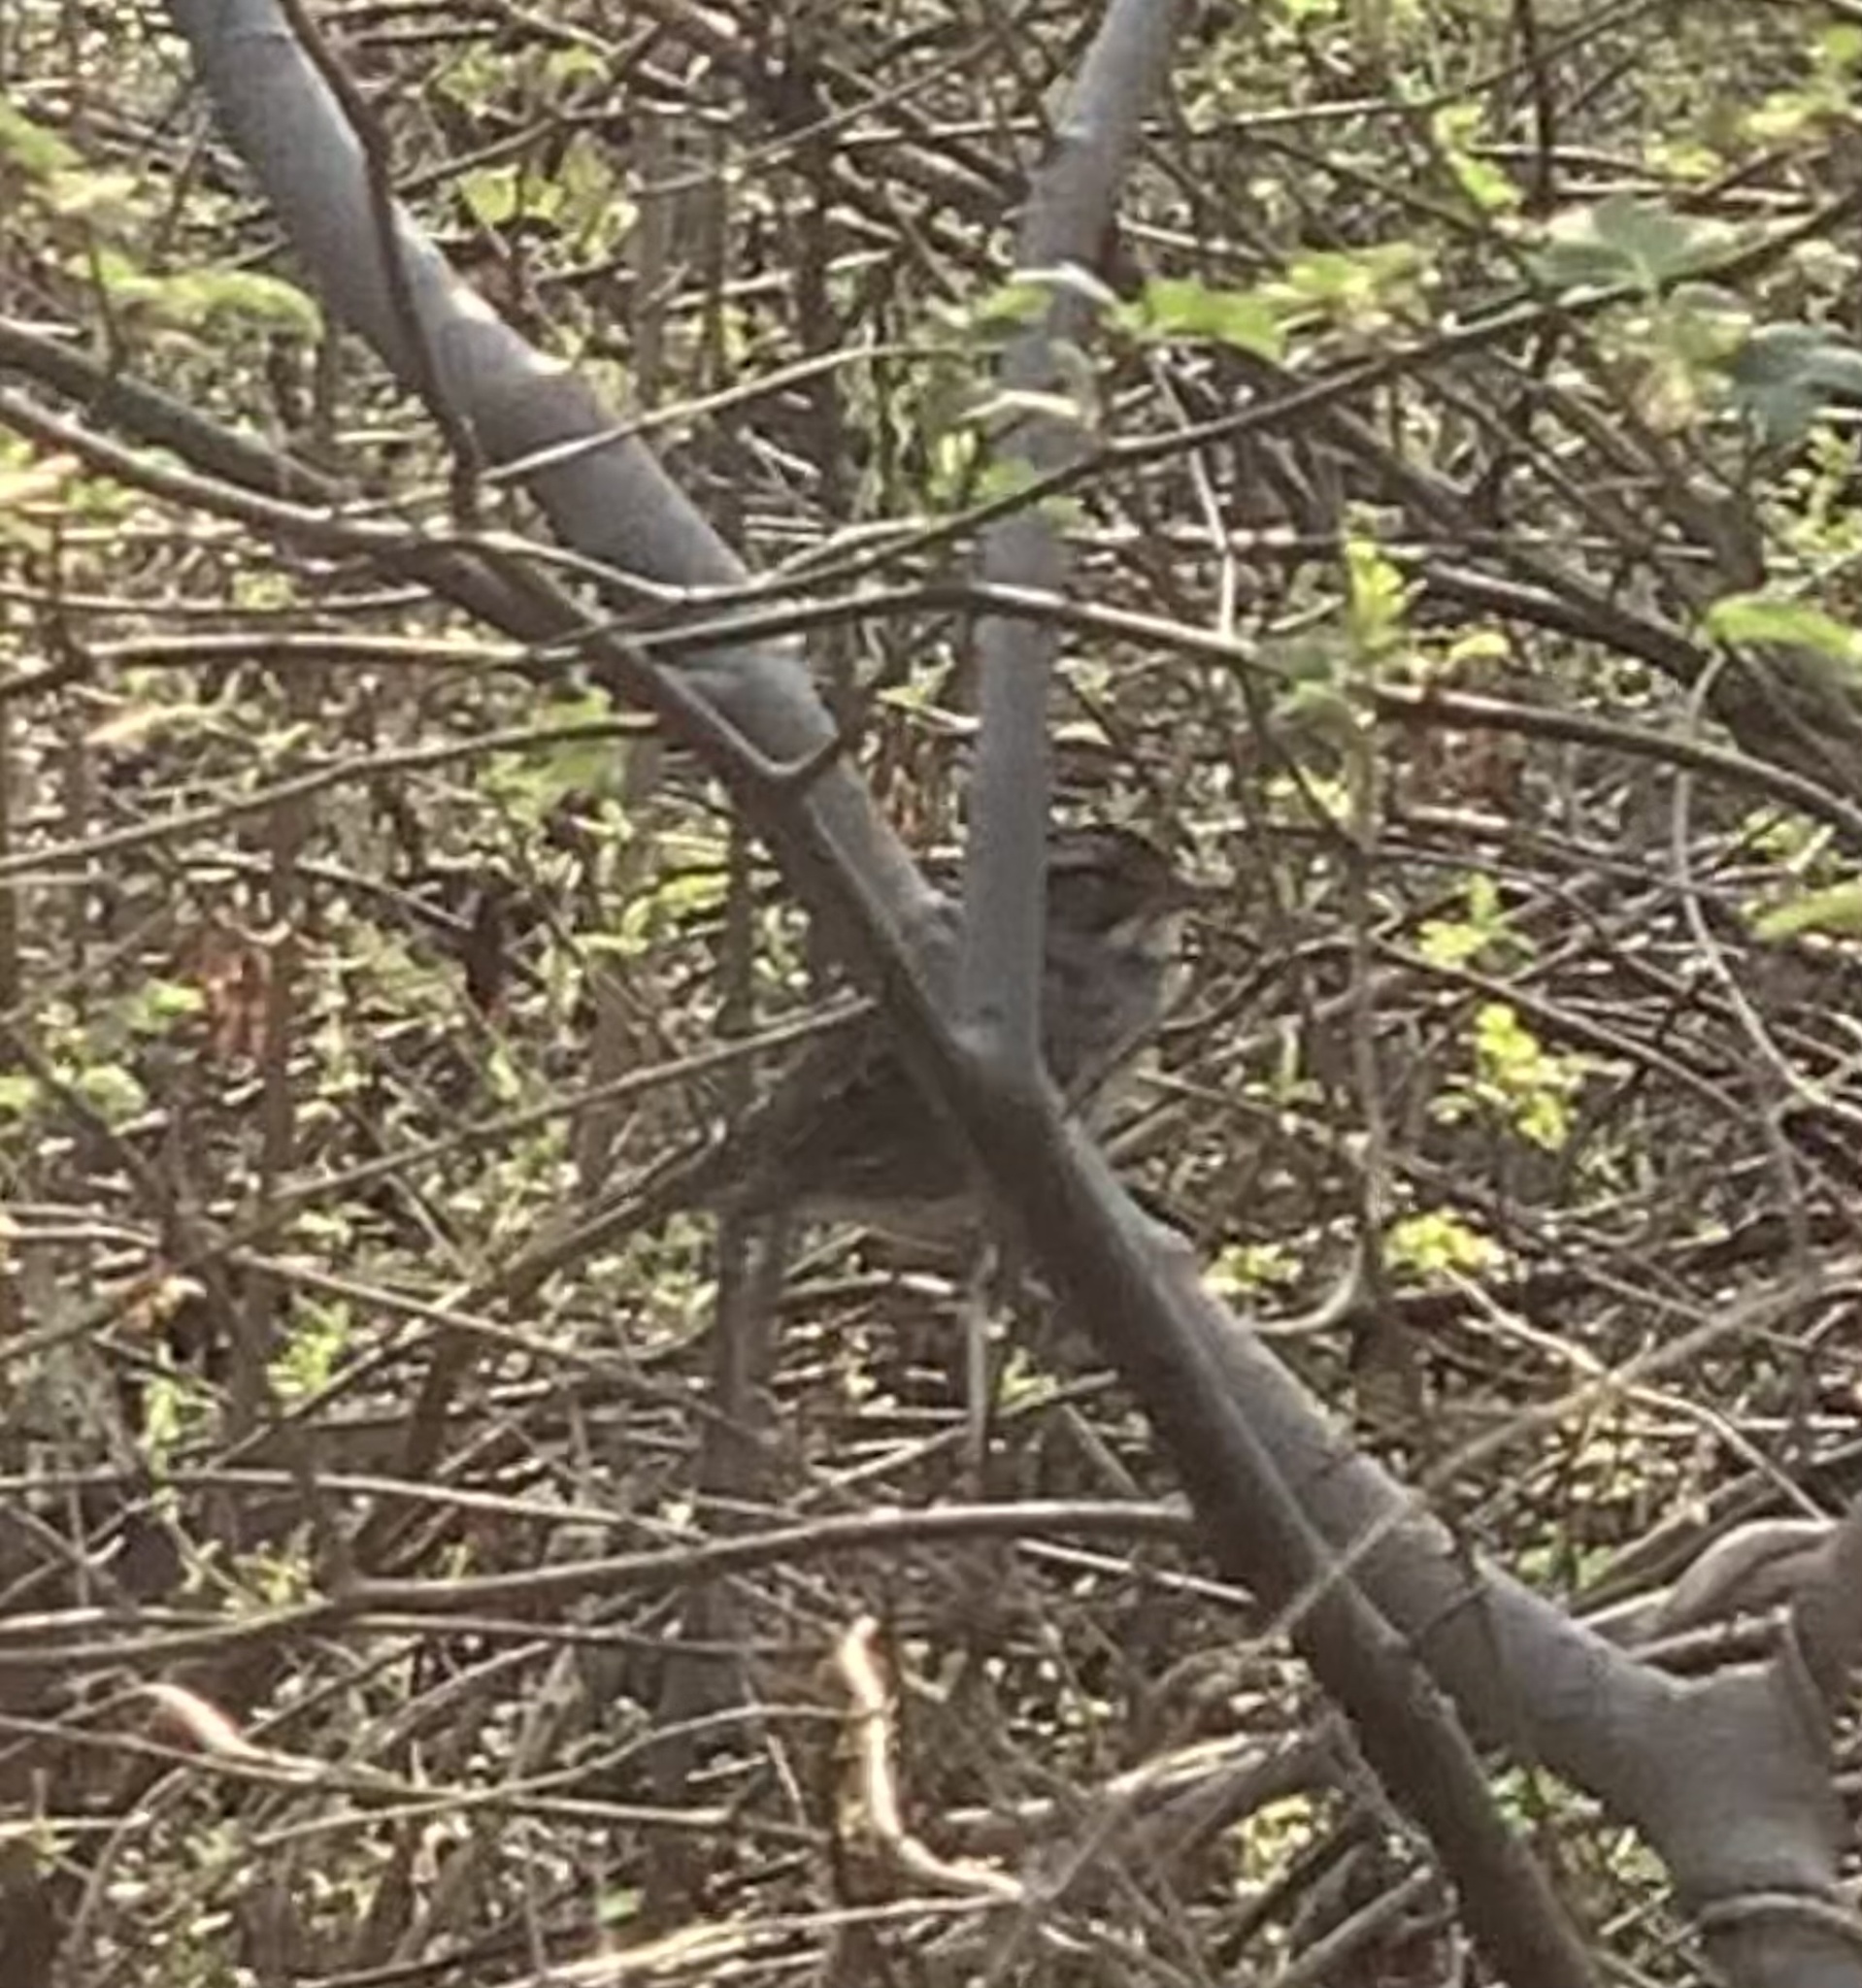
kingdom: Animalia
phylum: Chordata
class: Aves
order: Passeriformes
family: Passerellidae
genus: Zonotrichia
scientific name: Zonotrichia albicollis
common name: White-throated sparrow
